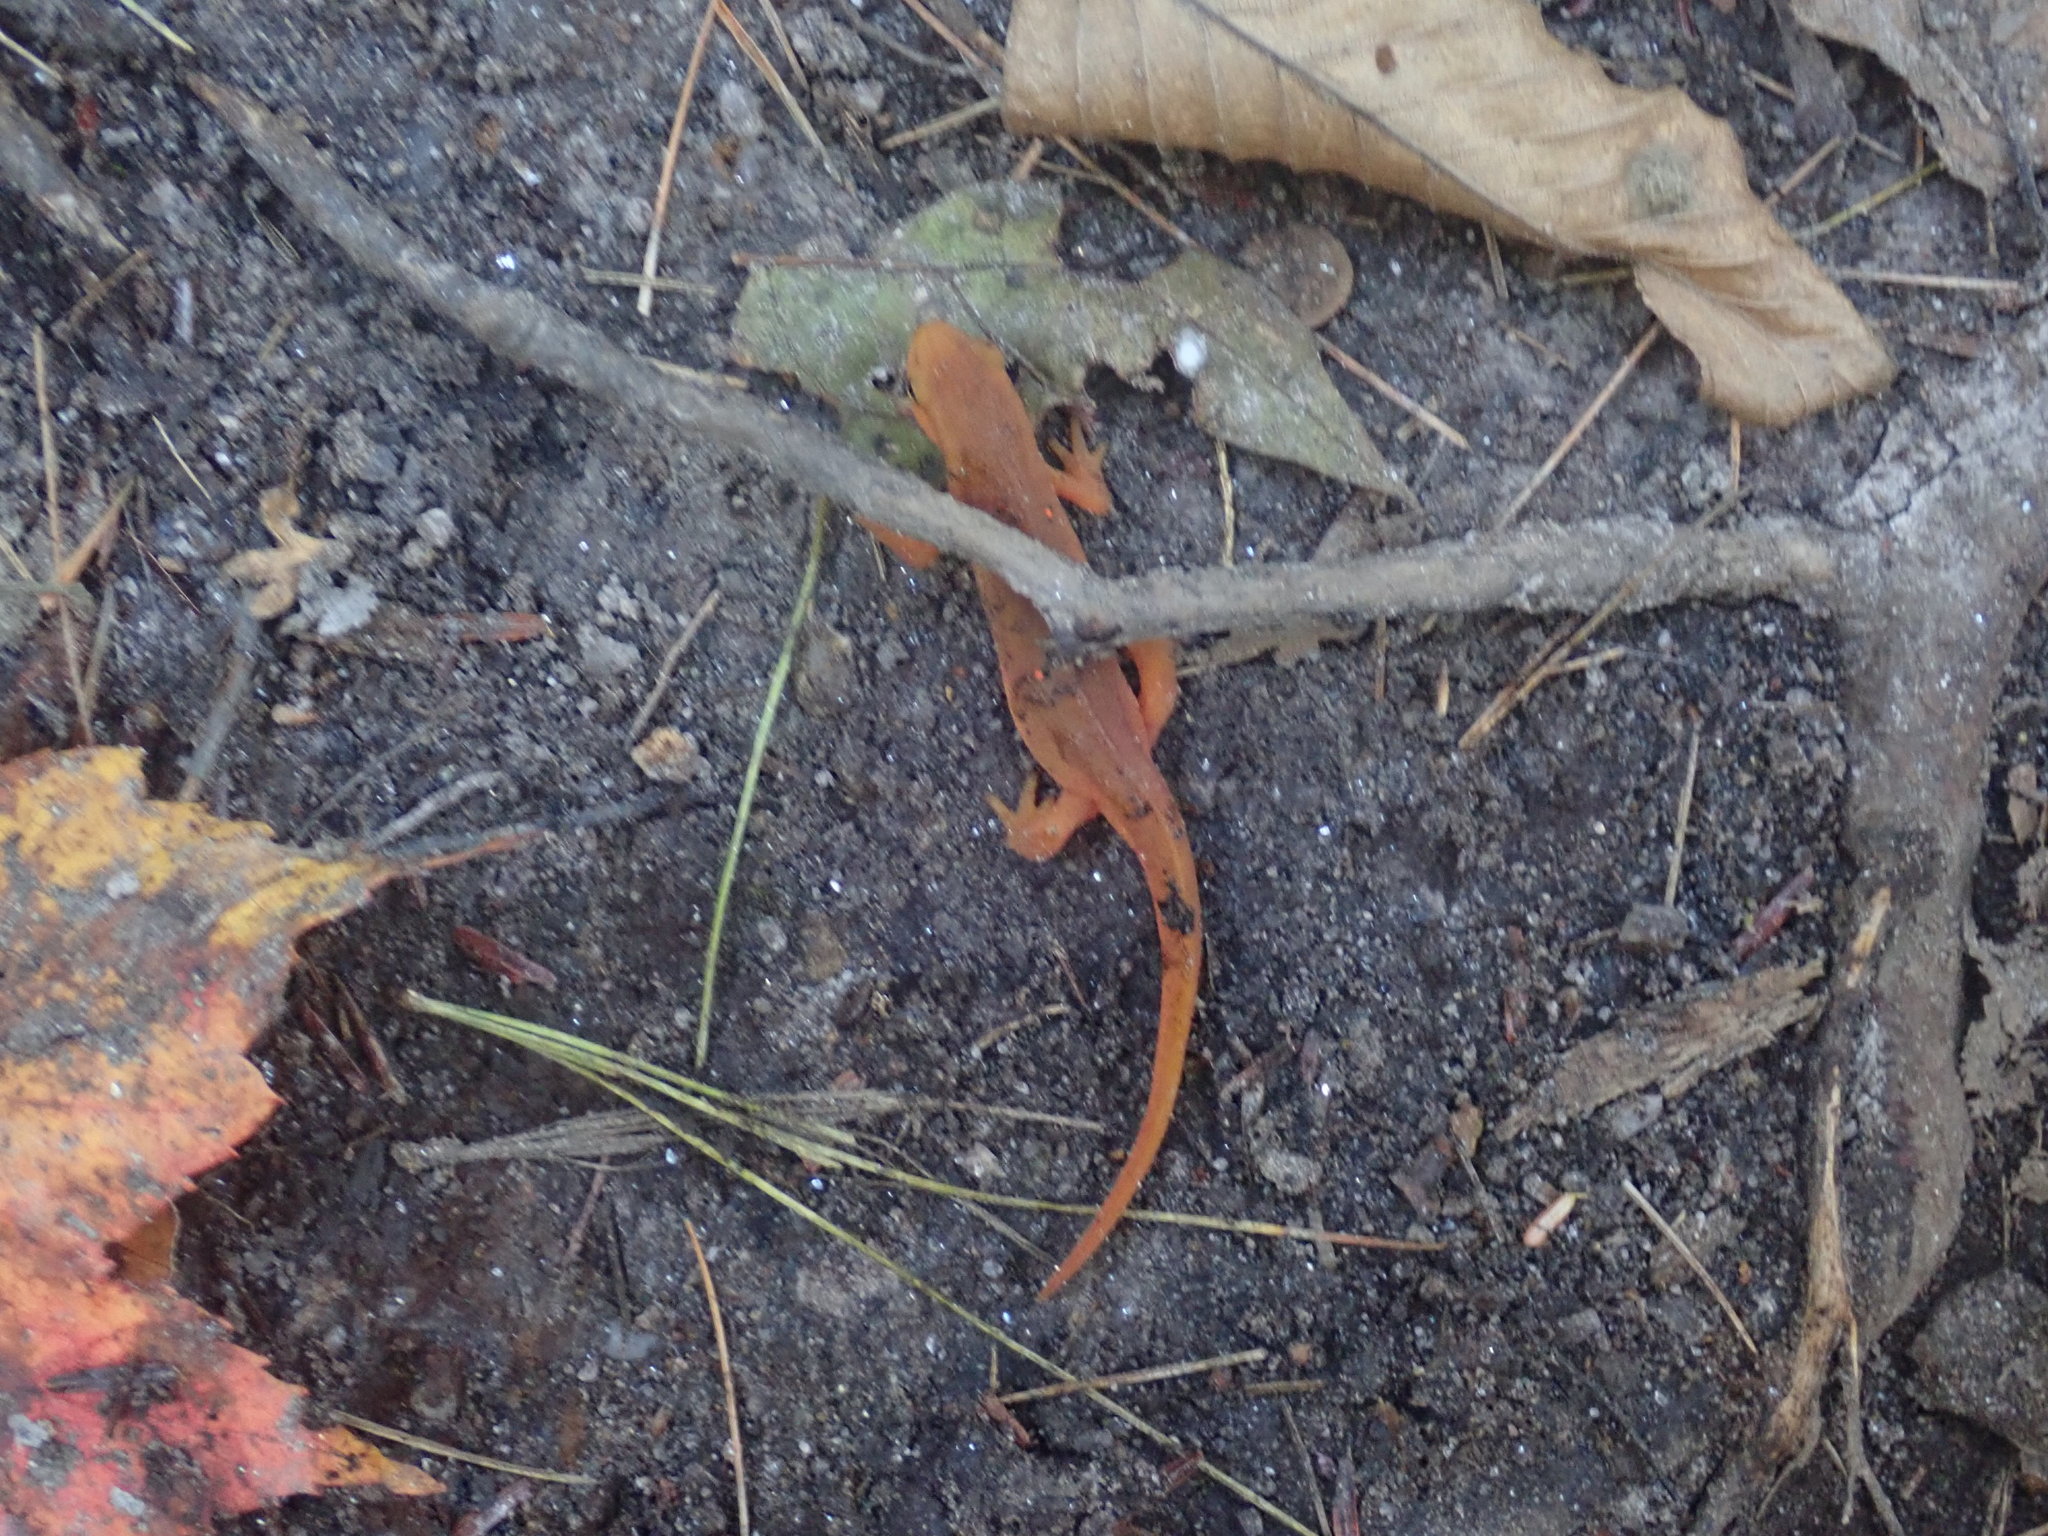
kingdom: Animalia
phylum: Chordata
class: Amphibia
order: Caudata
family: Salamandridae
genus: Notophthalmus
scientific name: Notophthalmus viridescens
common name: Eastern newt
